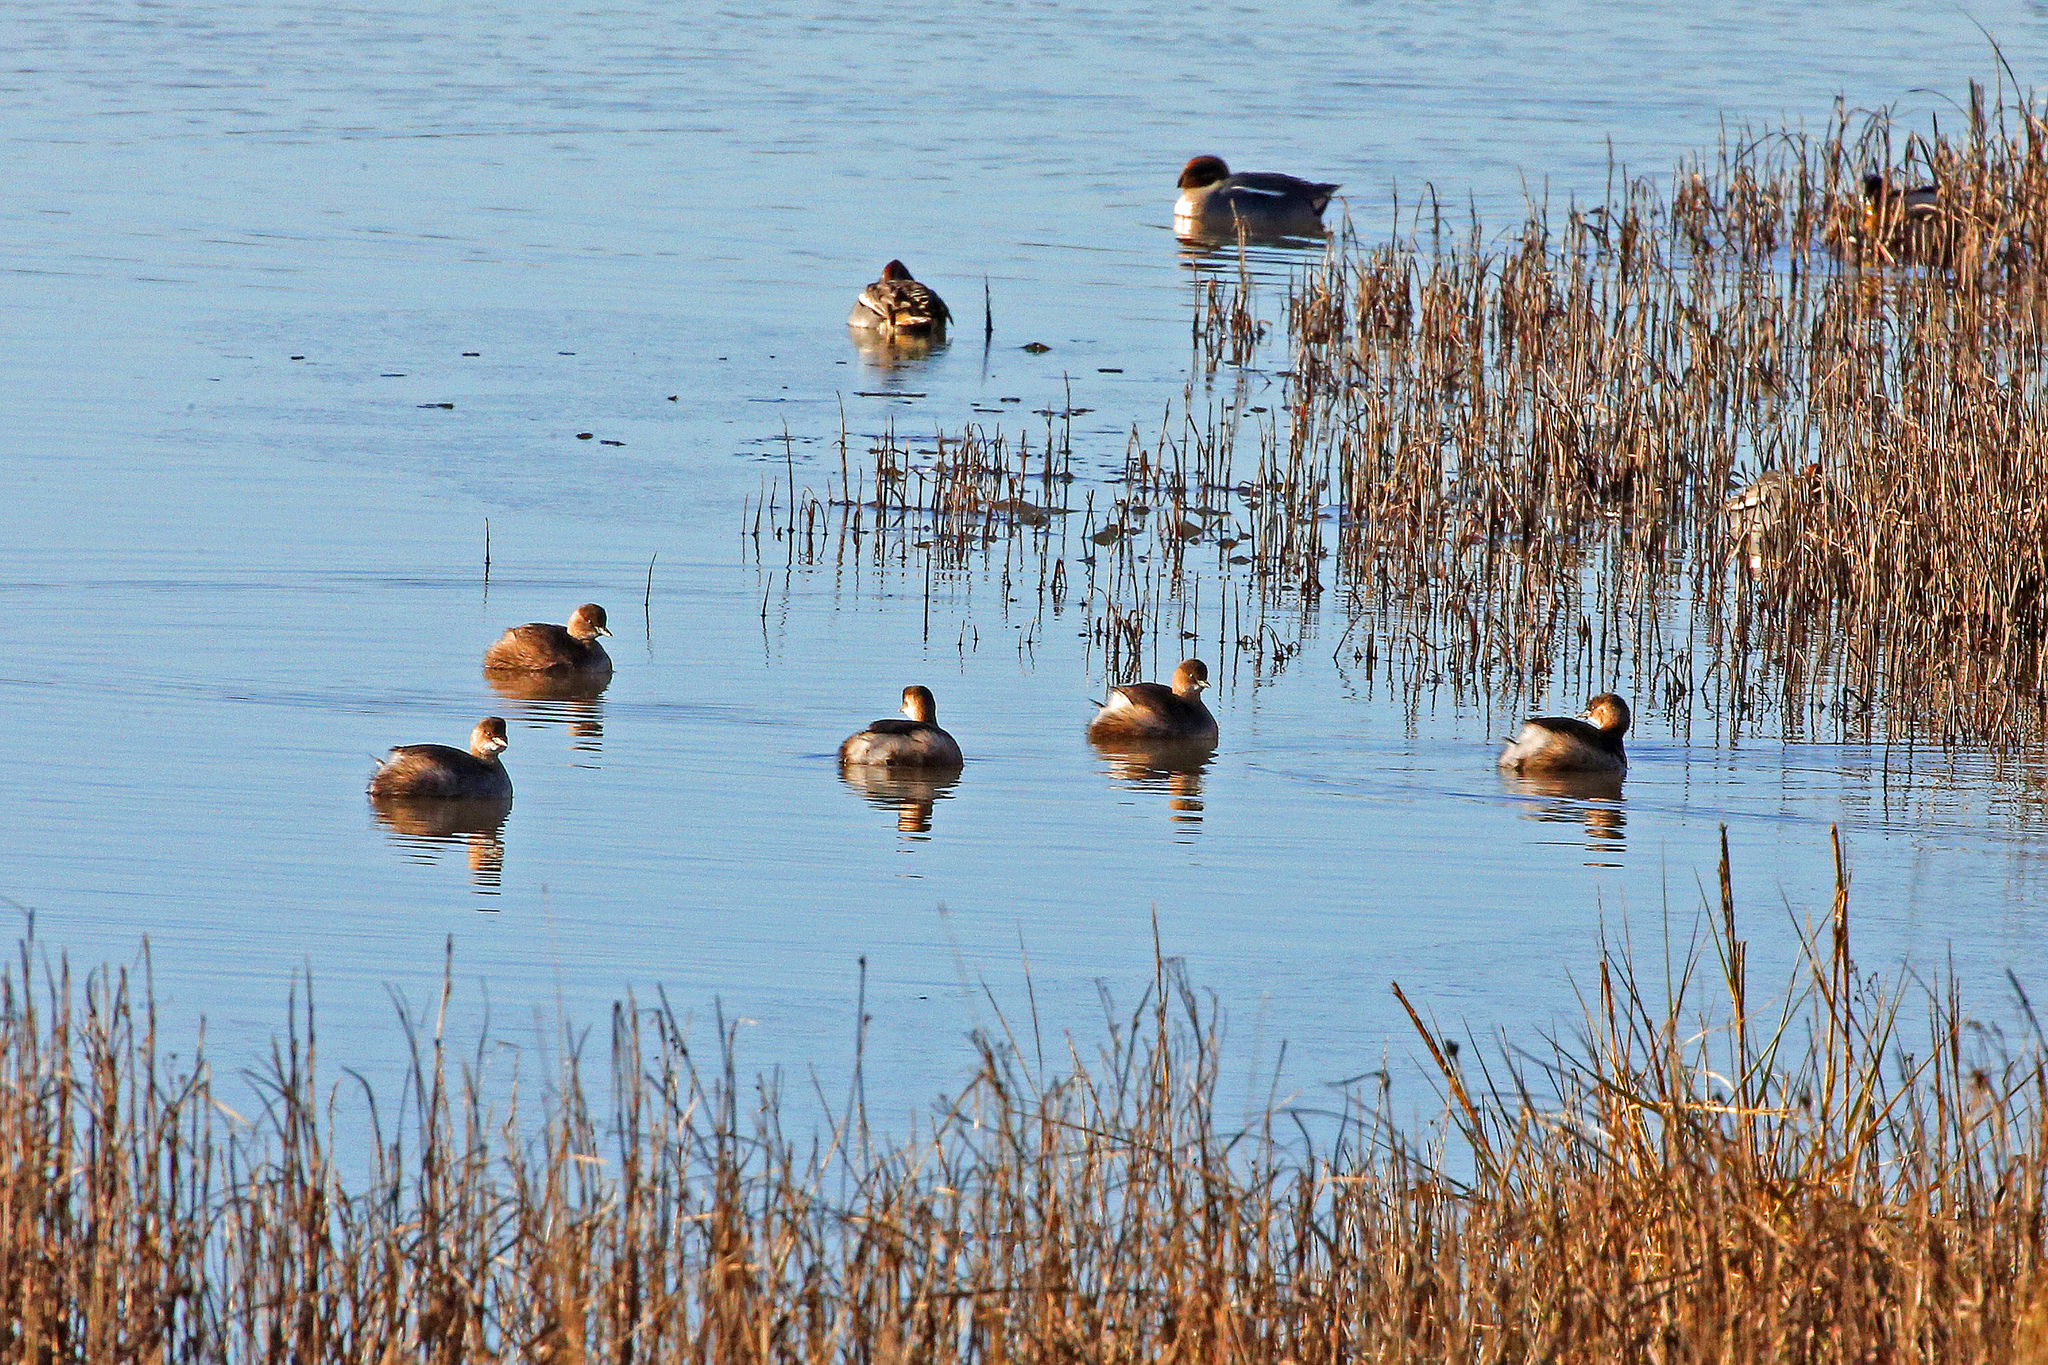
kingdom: Animalia
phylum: Chordata
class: Aves
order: Podicipediformes
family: Podicipedidae
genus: Tachybaptus
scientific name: Tachybaptus ruficollis
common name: Little grebe
